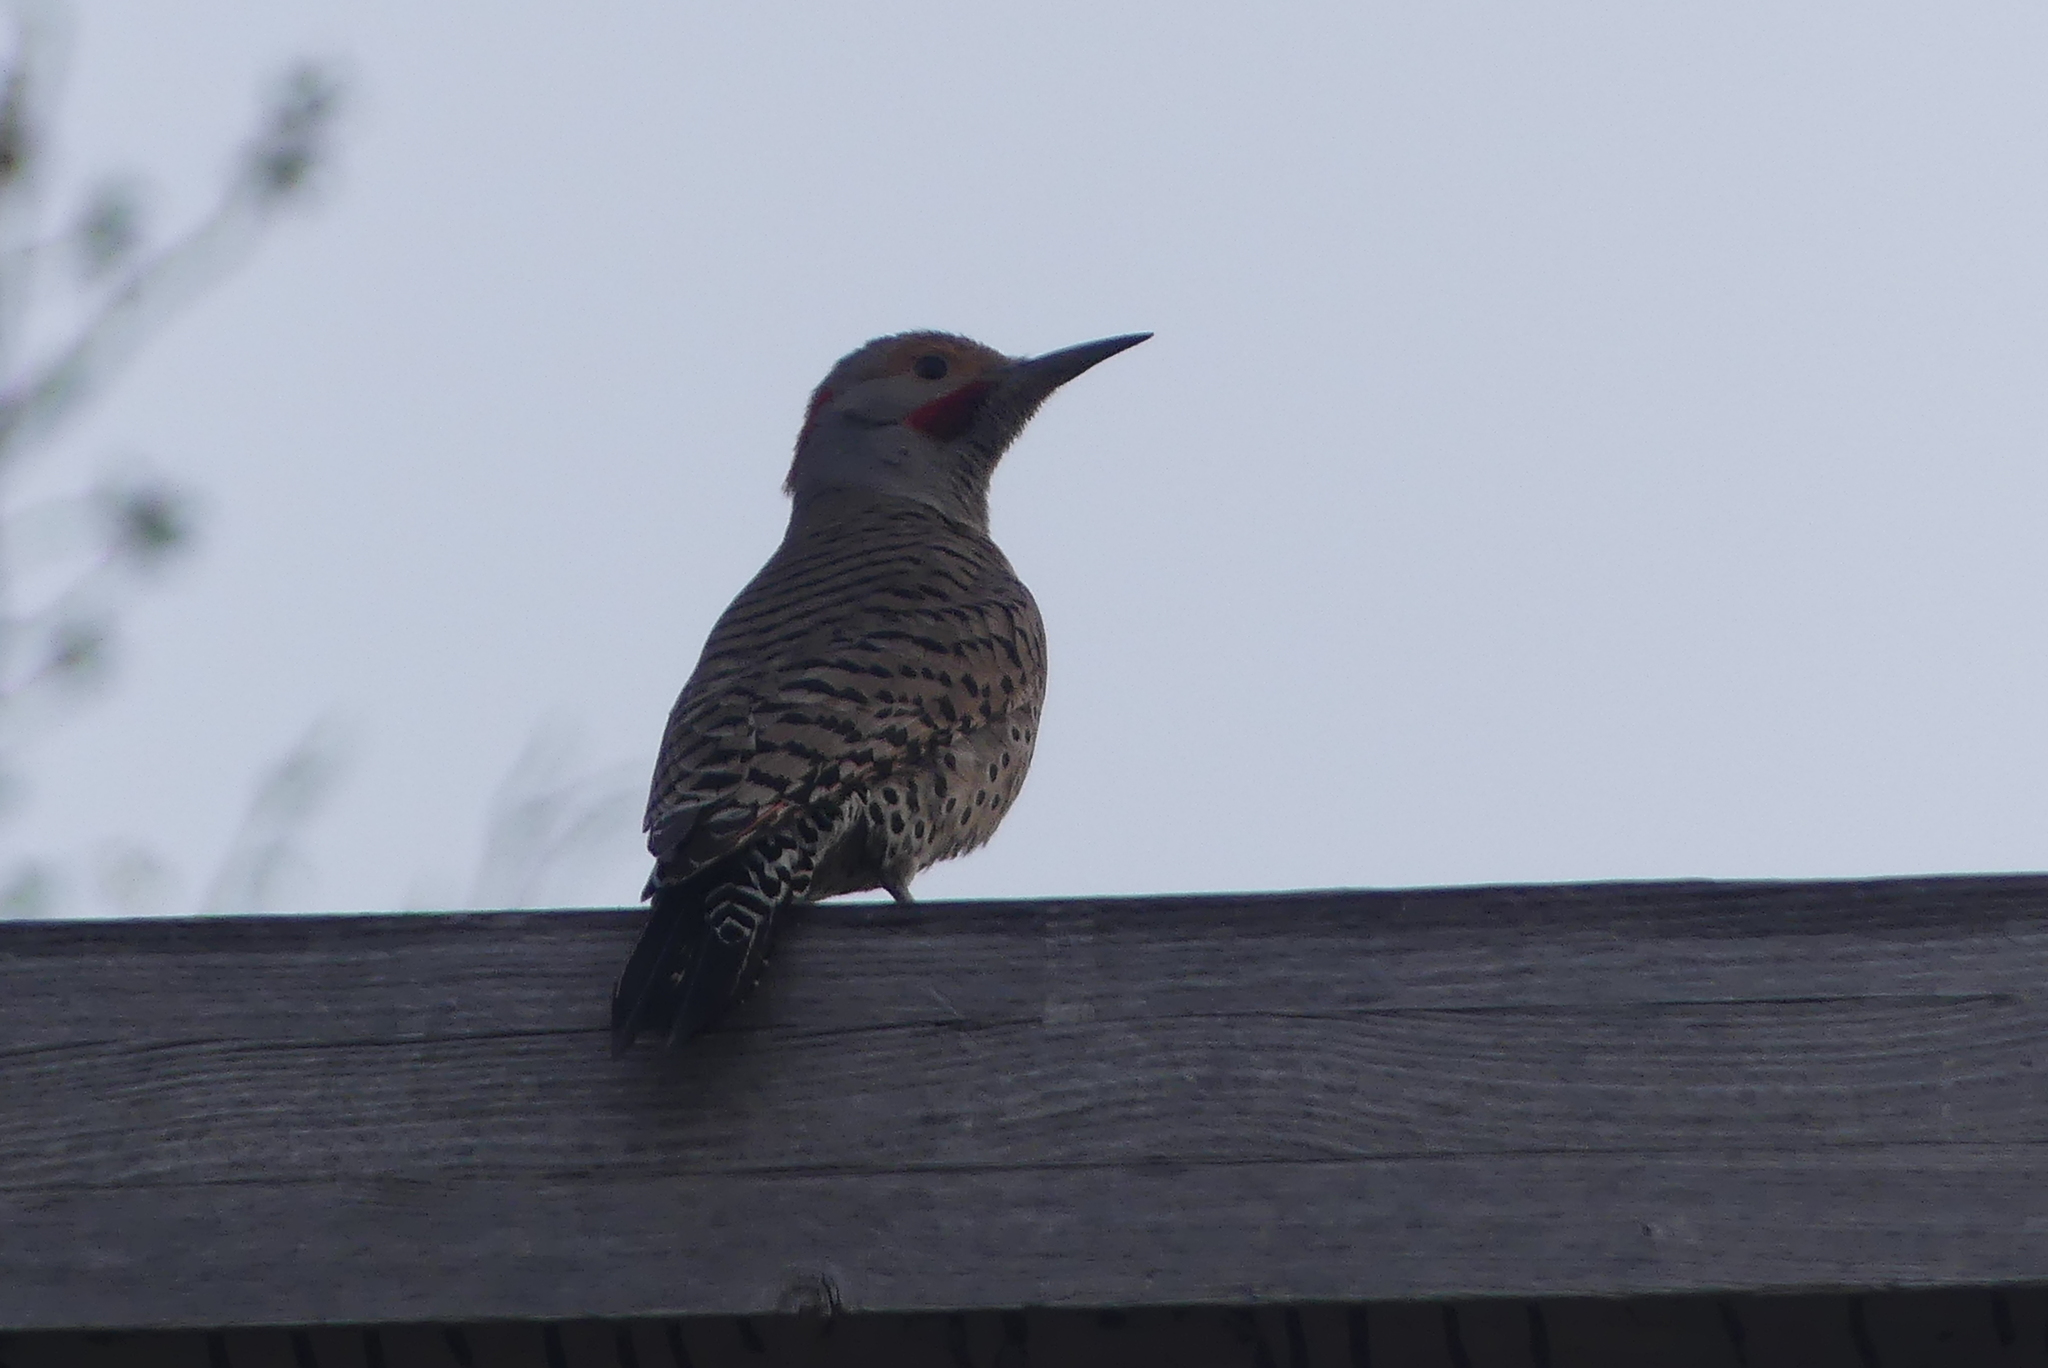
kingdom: Animalia
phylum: Chordata
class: Aves
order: Piciformes
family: Picidae
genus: Colaptes
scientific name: Colaptes auratus
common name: Northern flicker
